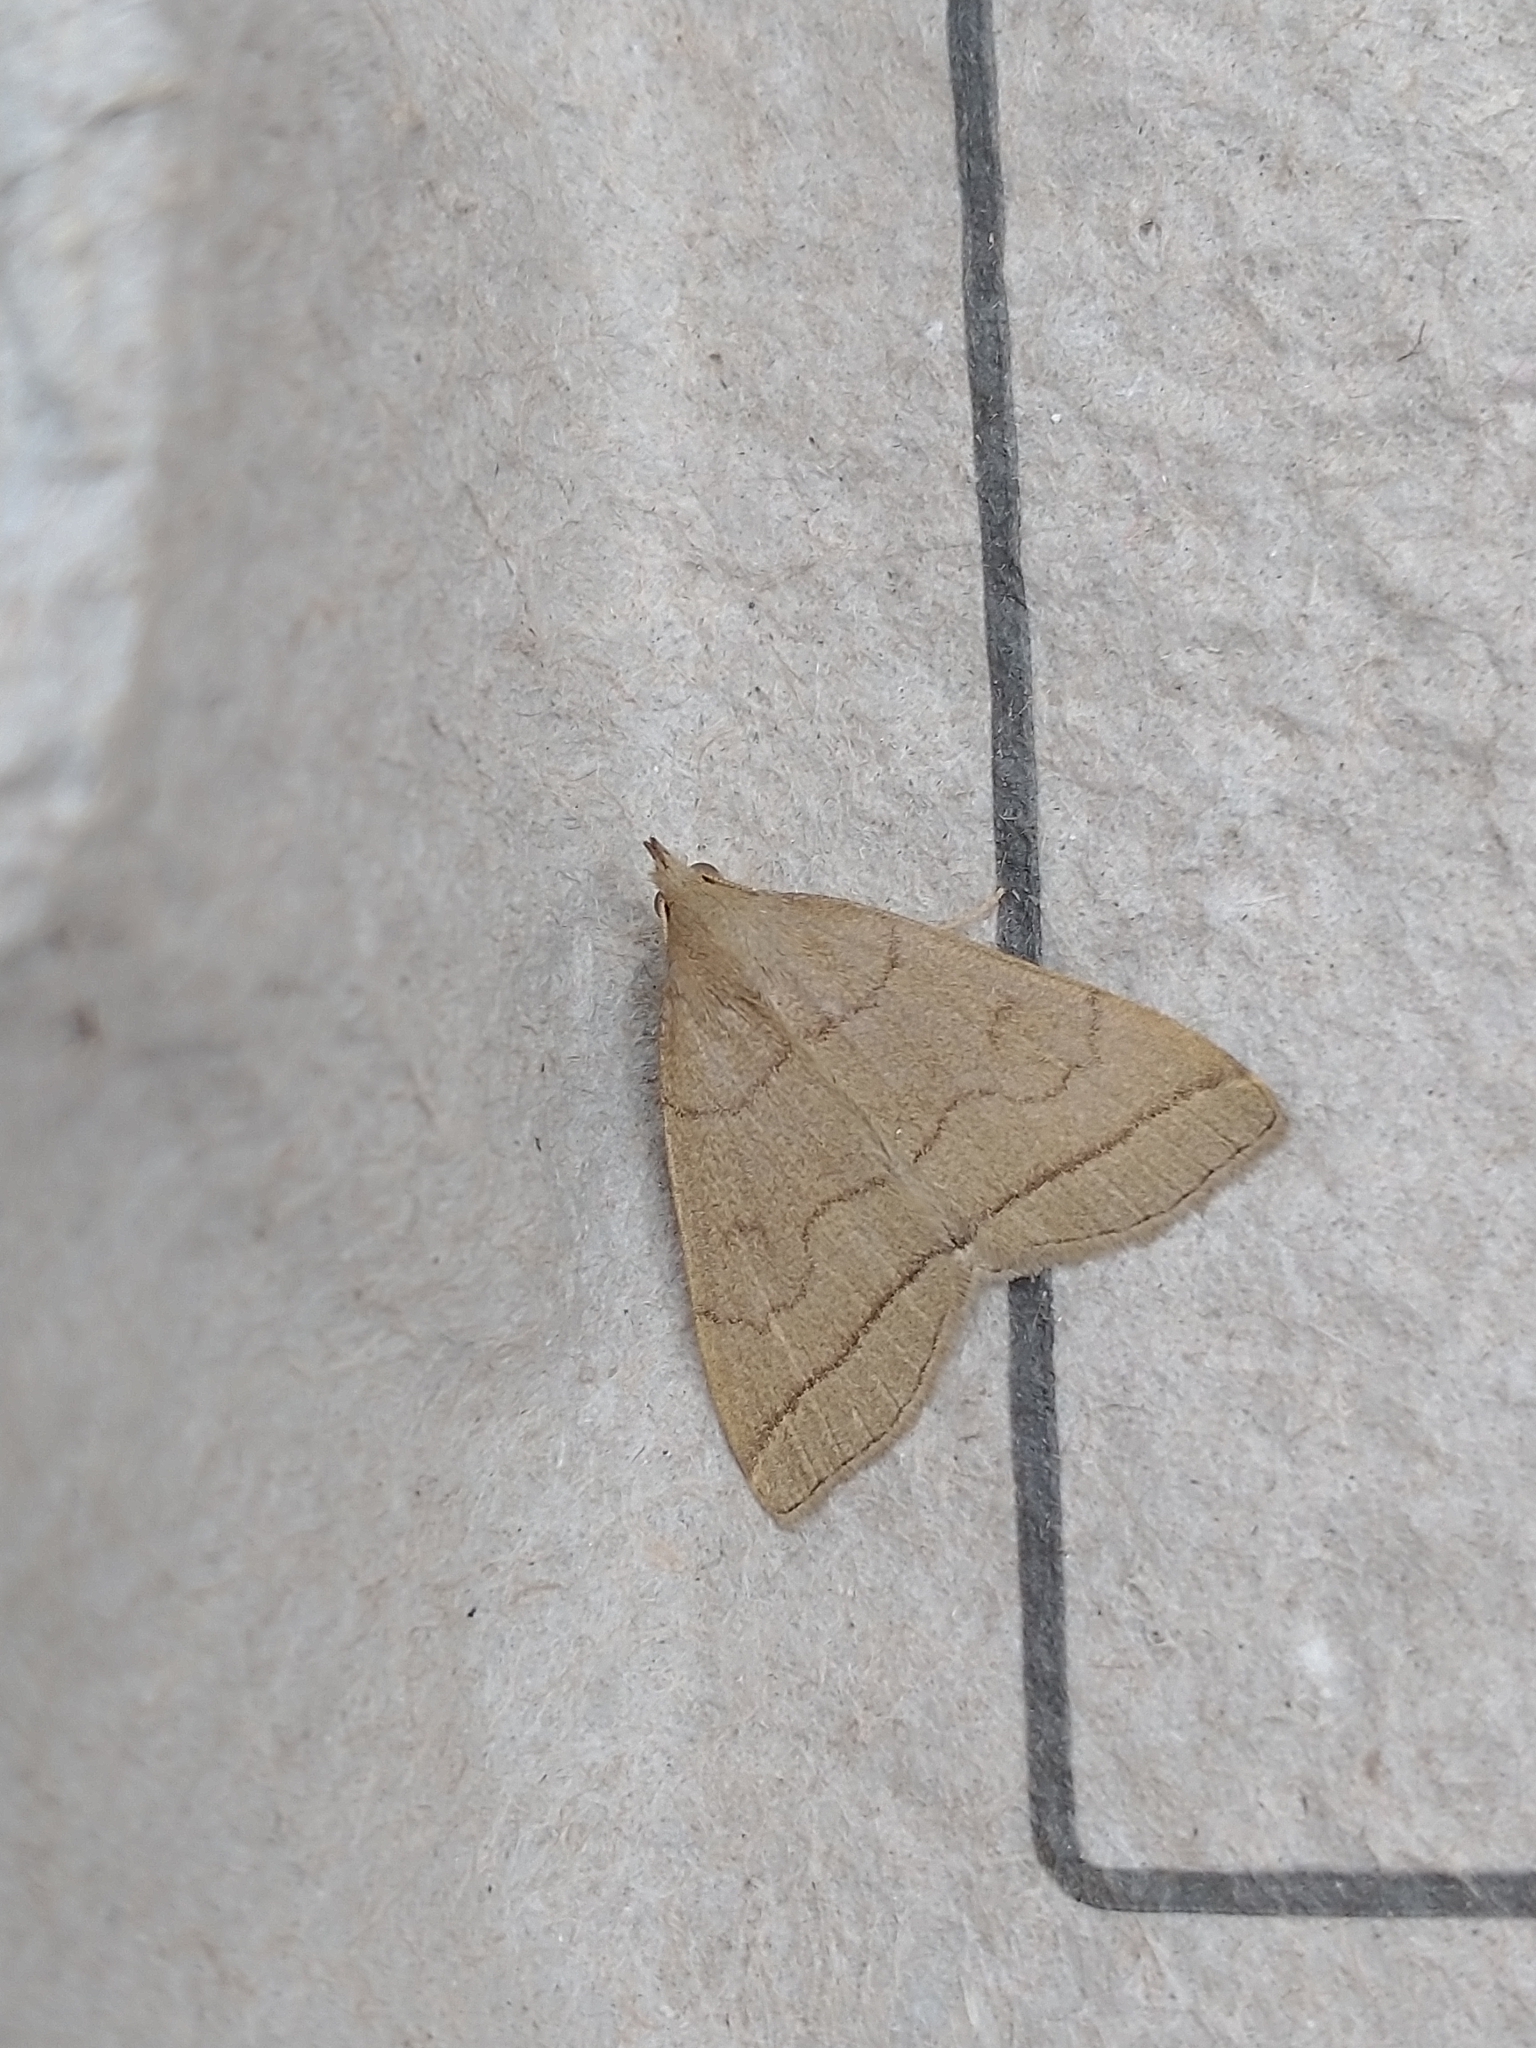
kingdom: Animalia
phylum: Arthropoda
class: Insecta
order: Lepidoptera
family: Erebidae
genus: Herminia
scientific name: Herminia tarsipennalis
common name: Fan-foot
